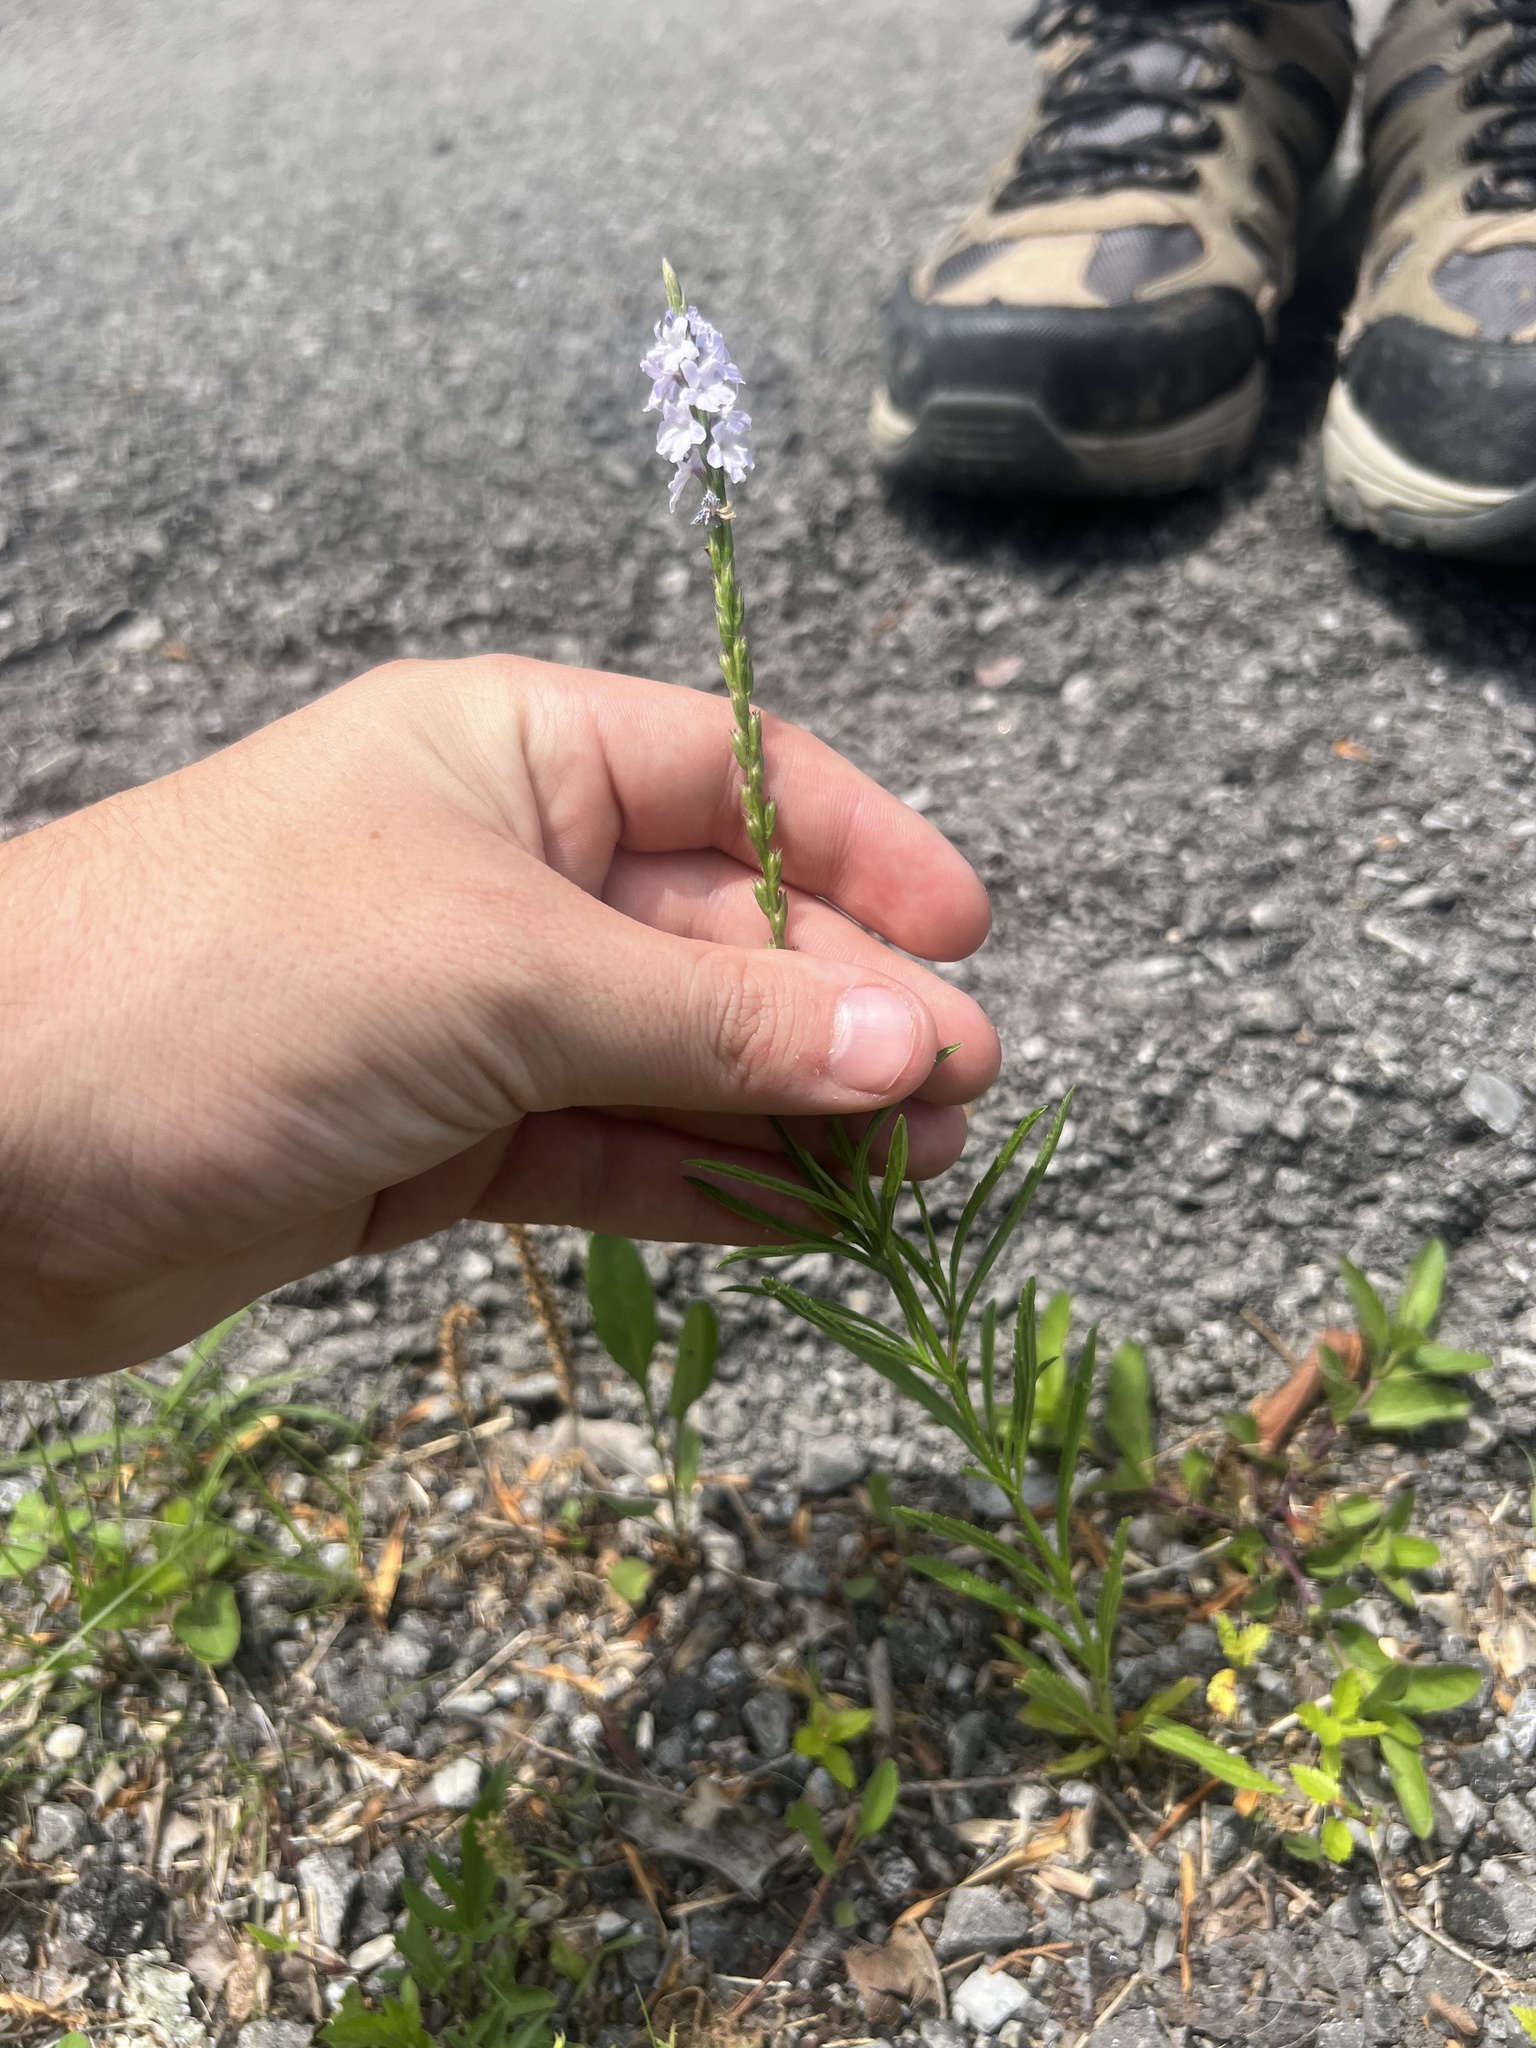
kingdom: Plantae
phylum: Tracheophyta
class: Magnoliopsida
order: Lamiales
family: Verbenaceae
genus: Verbena
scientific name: Verbena simplex
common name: Narrow-leaf vervain
